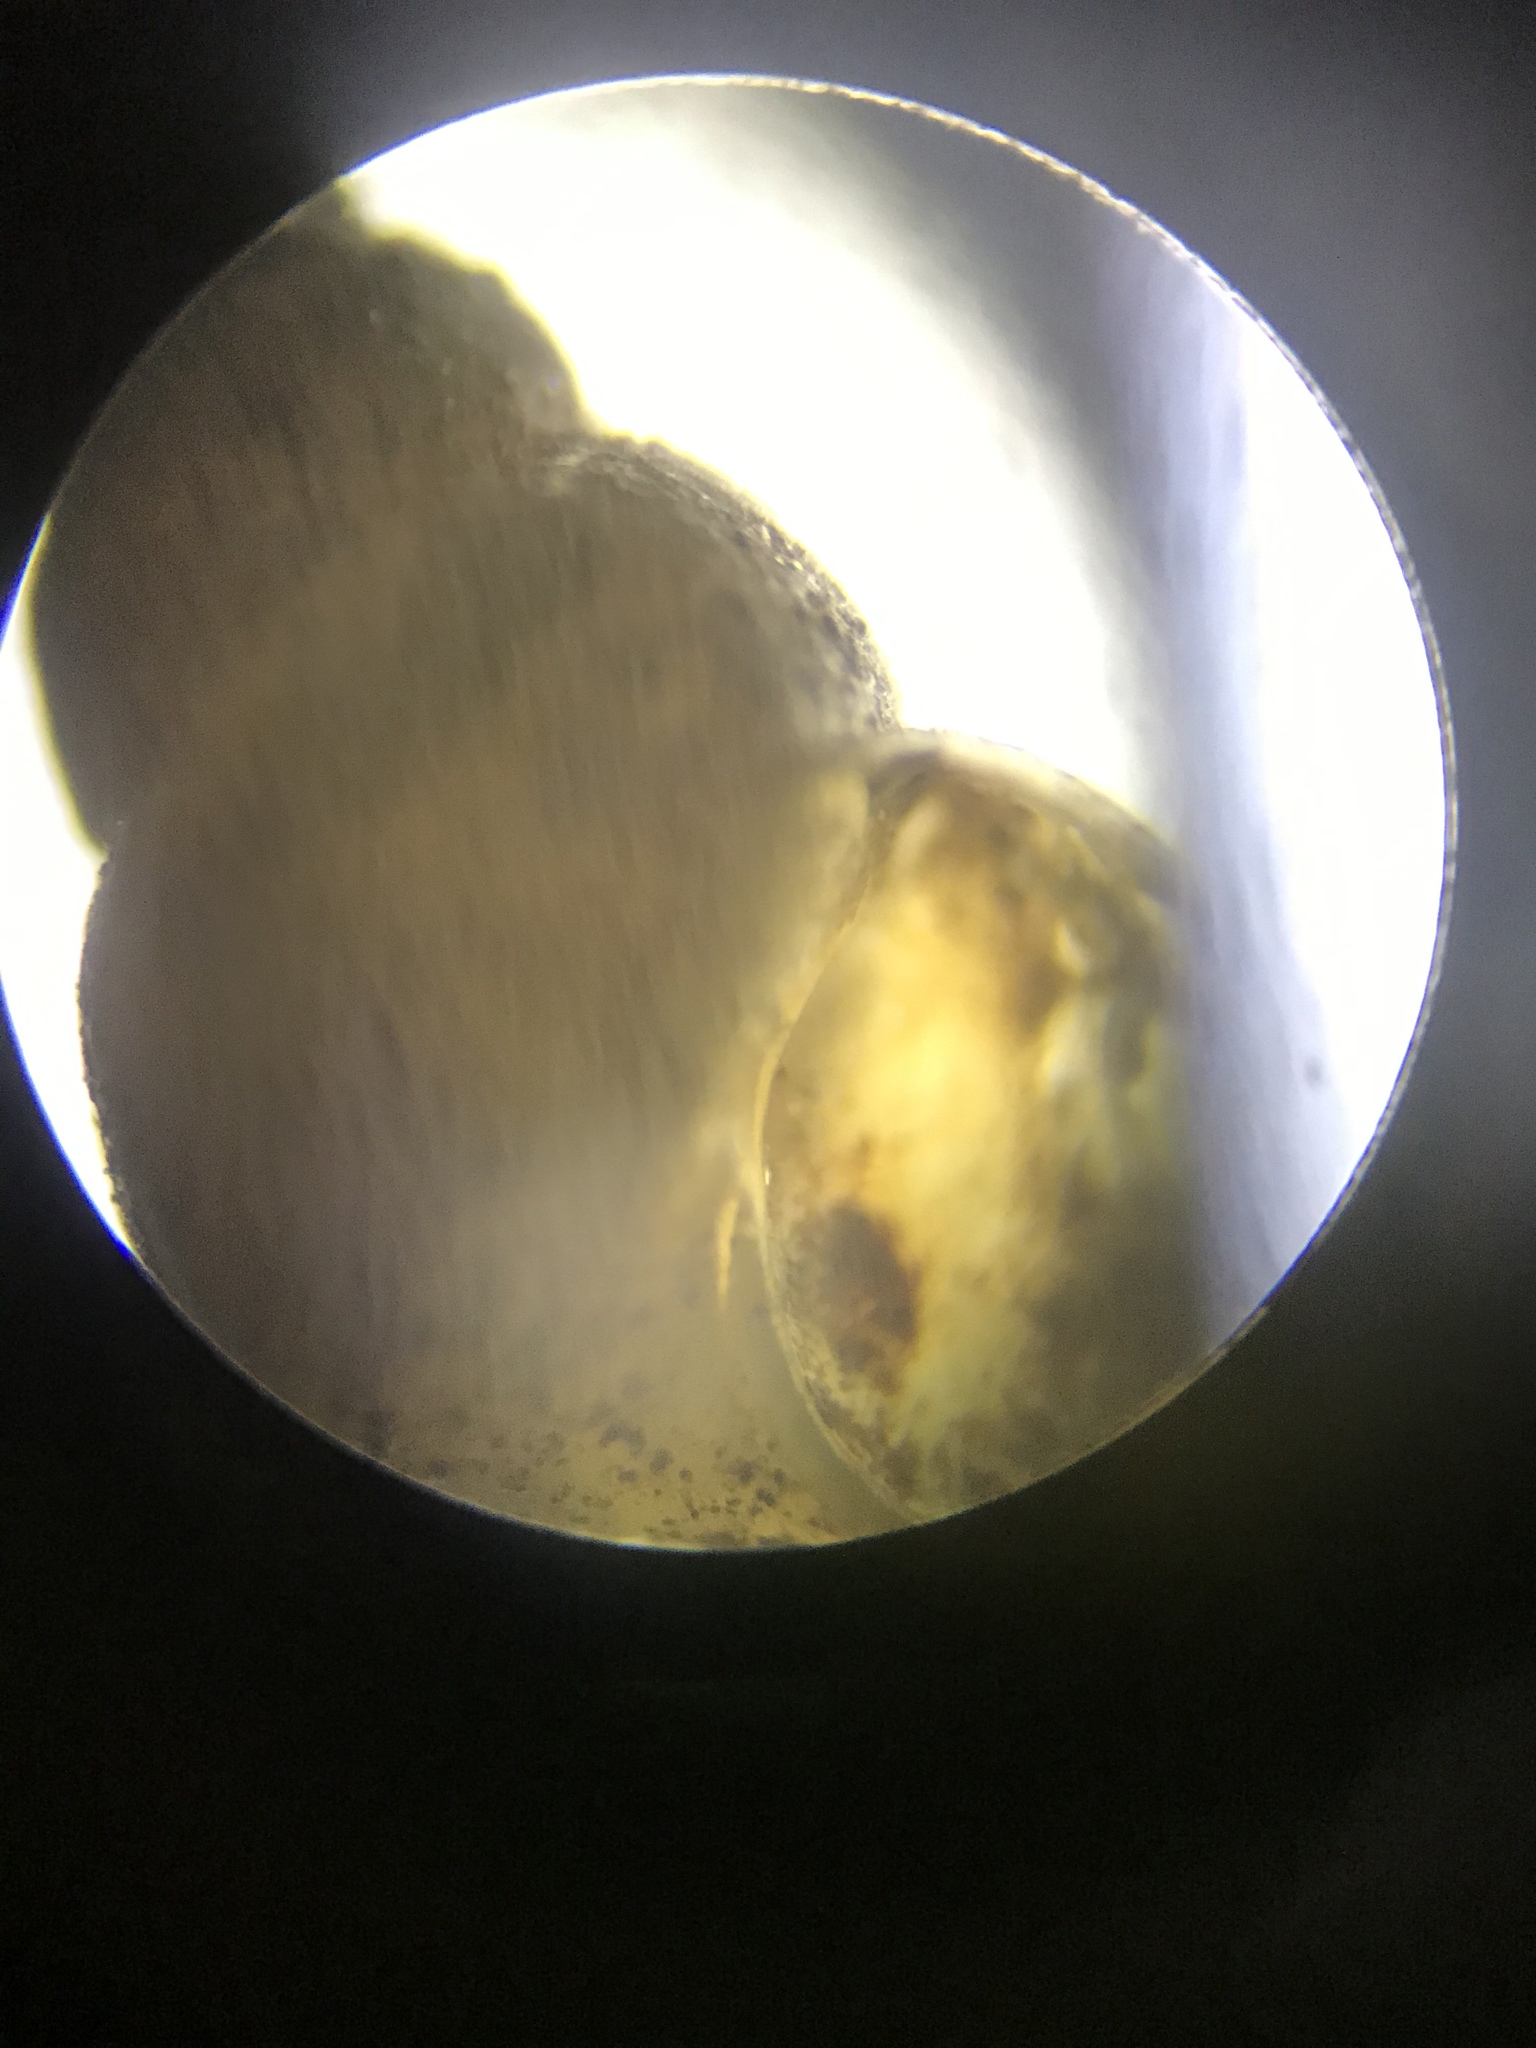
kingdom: Animalia
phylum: Mollusca
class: Gastropoda
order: Littorinimorpha
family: Tateidae
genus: Potamopyrgus
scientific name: Potamopyrgus antipodarum
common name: Jenkins' spire snail
